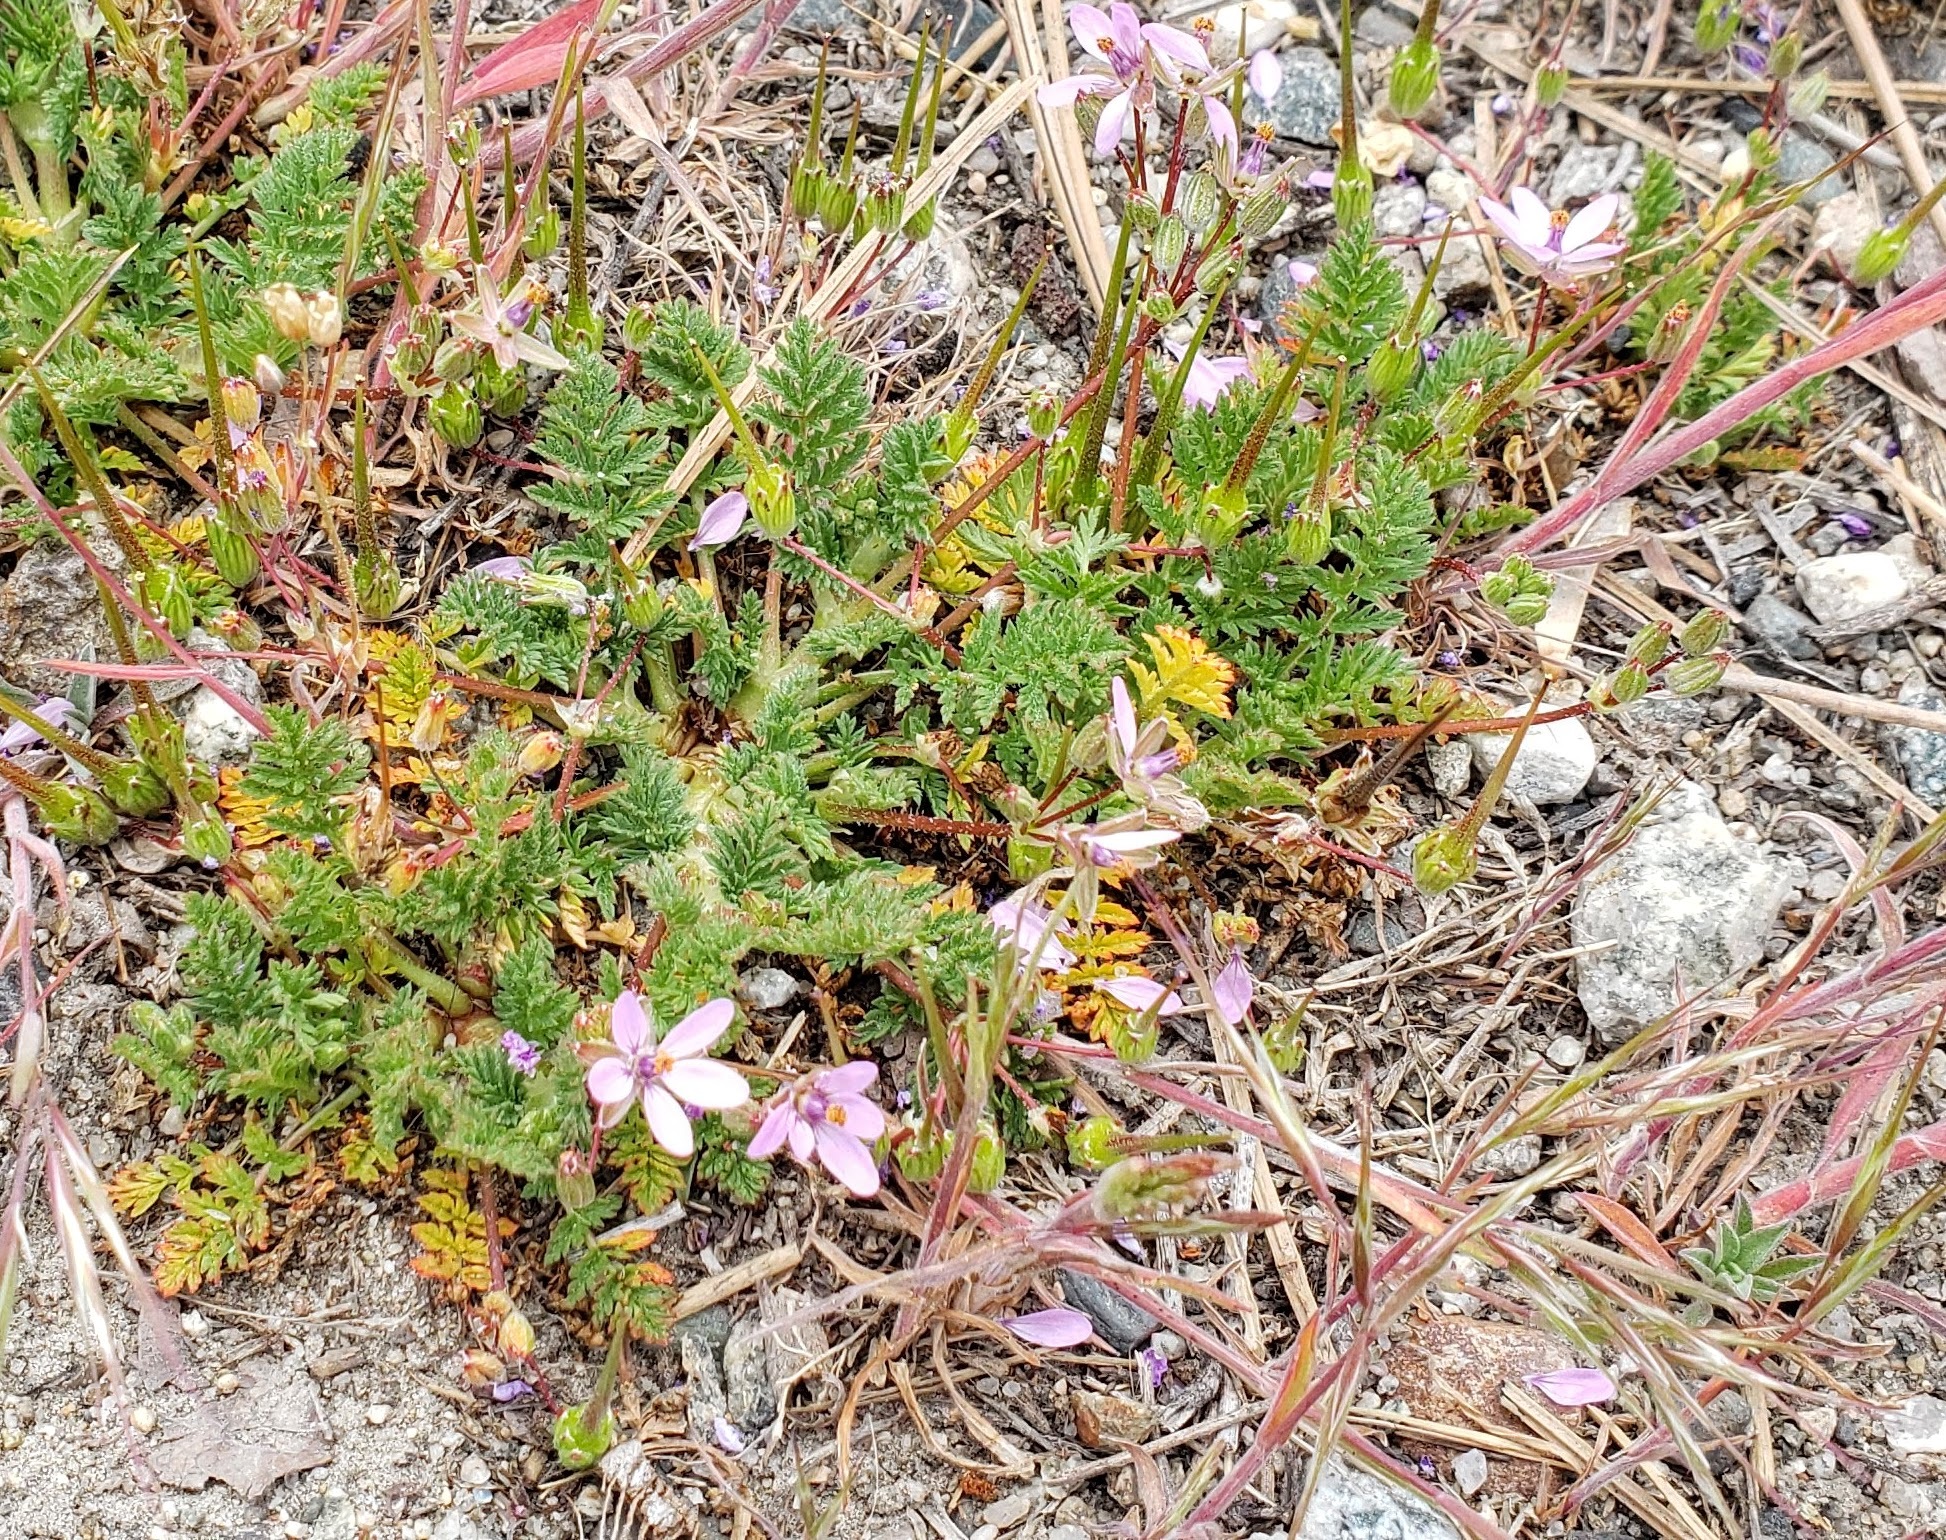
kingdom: Plantae
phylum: Tracheophyta
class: Magnoliopsida
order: Geraniales
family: Geraniaceae
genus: Erodium
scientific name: Erodium cicutarium
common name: Common stork's-bill
